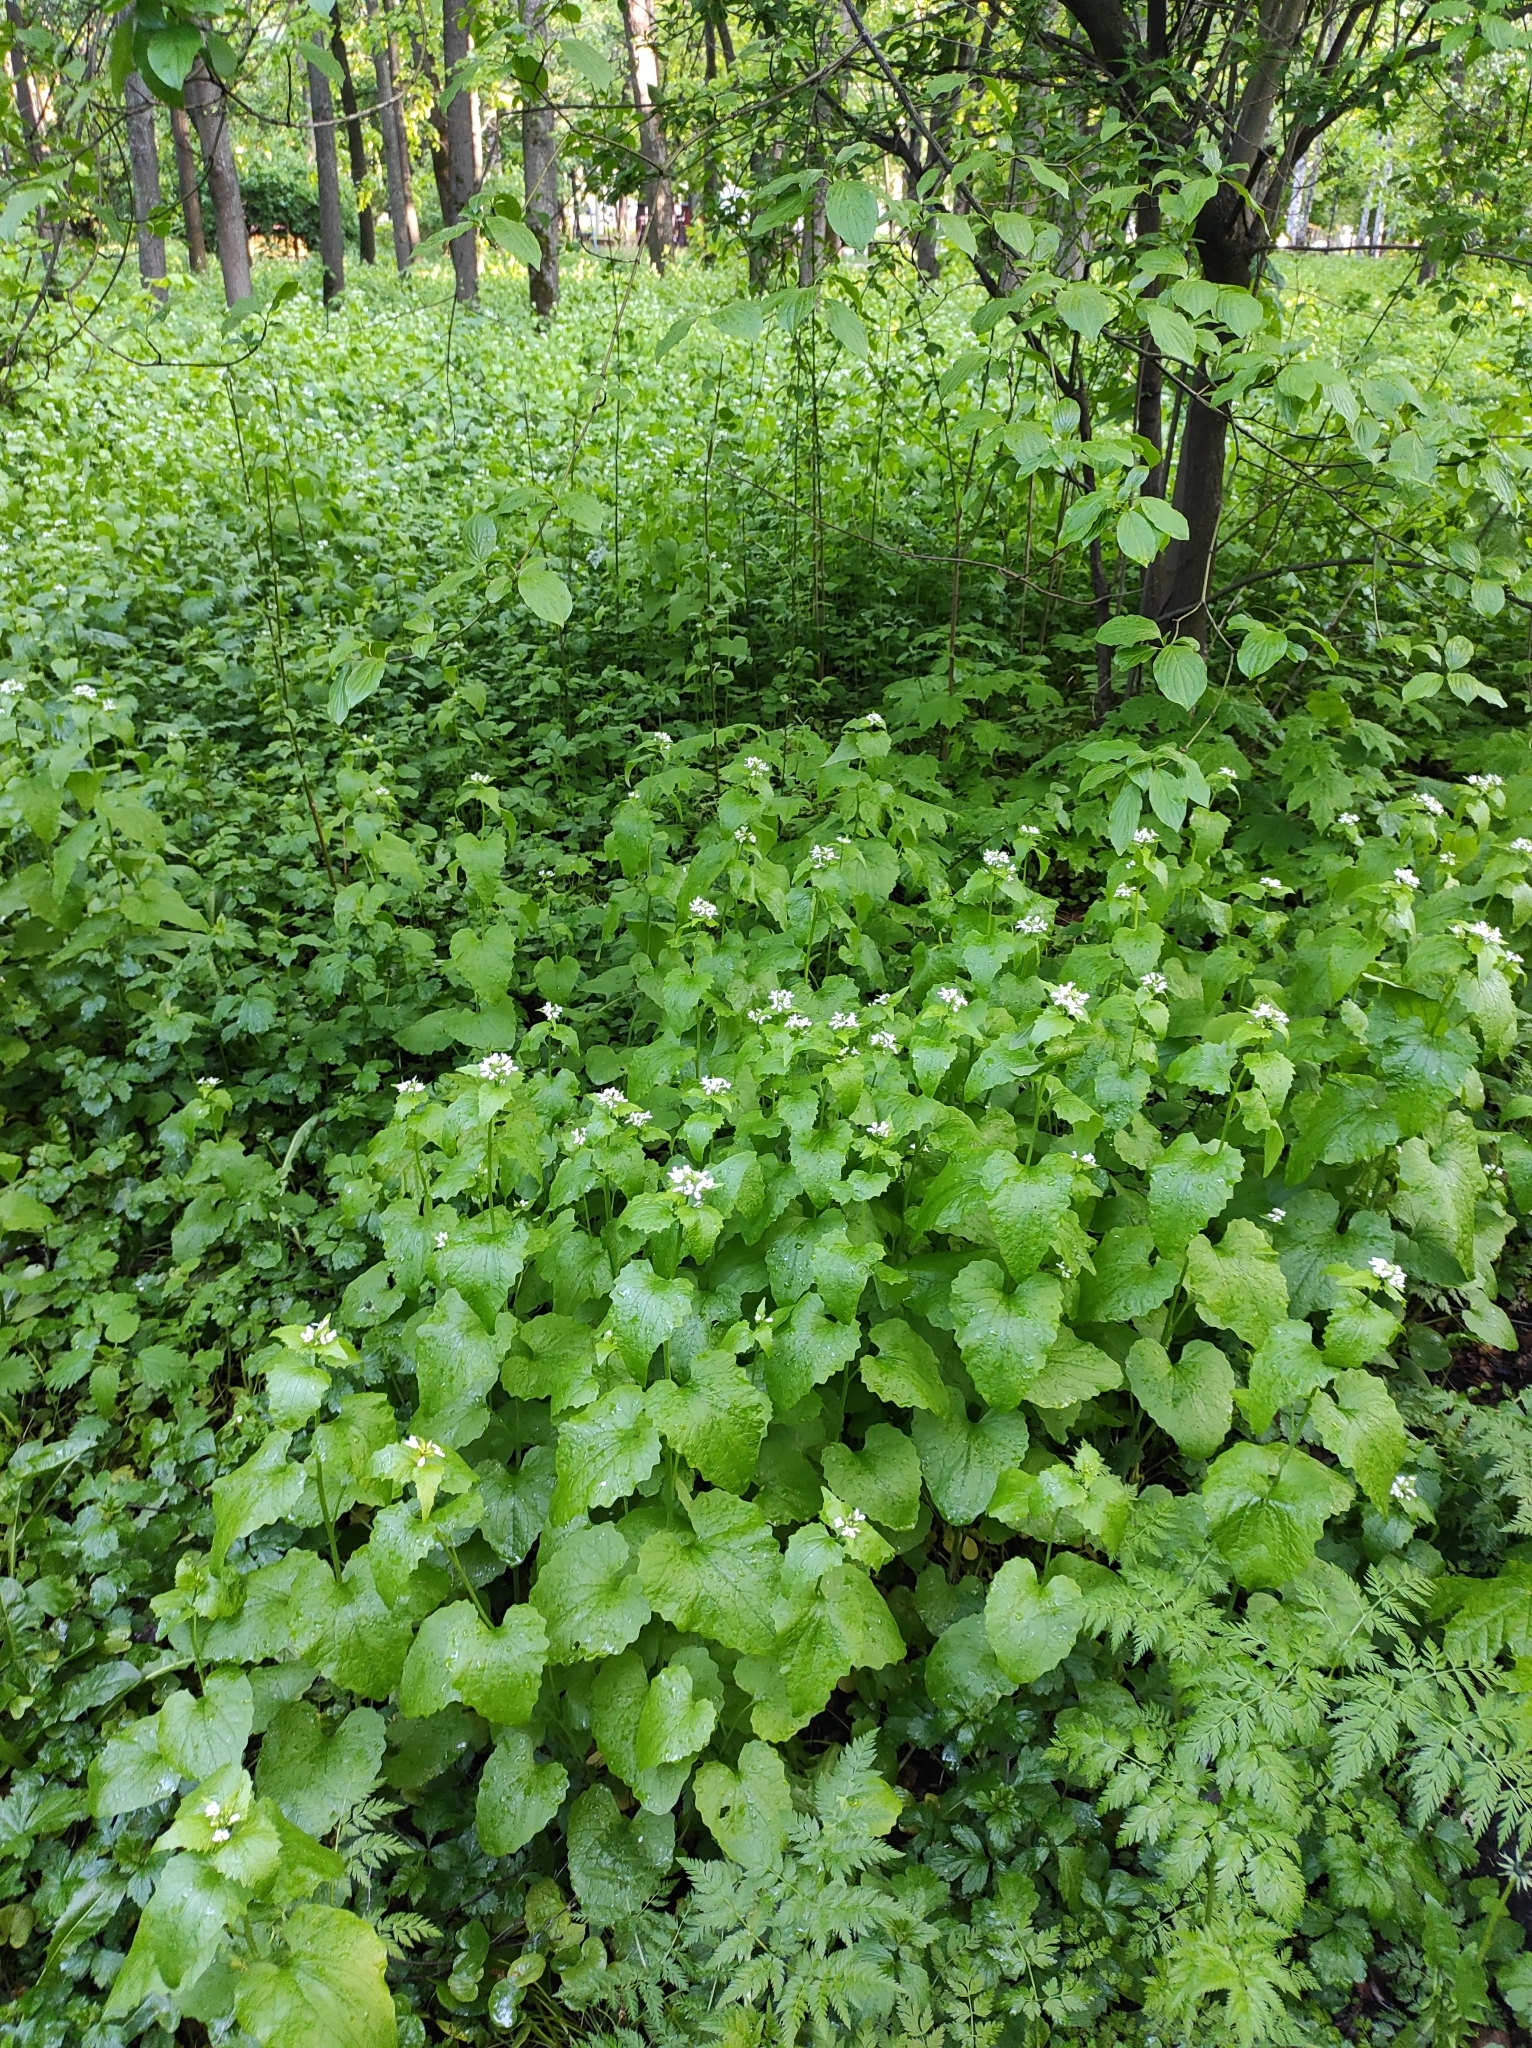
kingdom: Plantae
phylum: Tracheophyta
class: Magnoliopsida
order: Brassicales
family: Brassicaceae
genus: Alliaria
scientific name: Alliaria petiolata
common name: Garlic mustard
